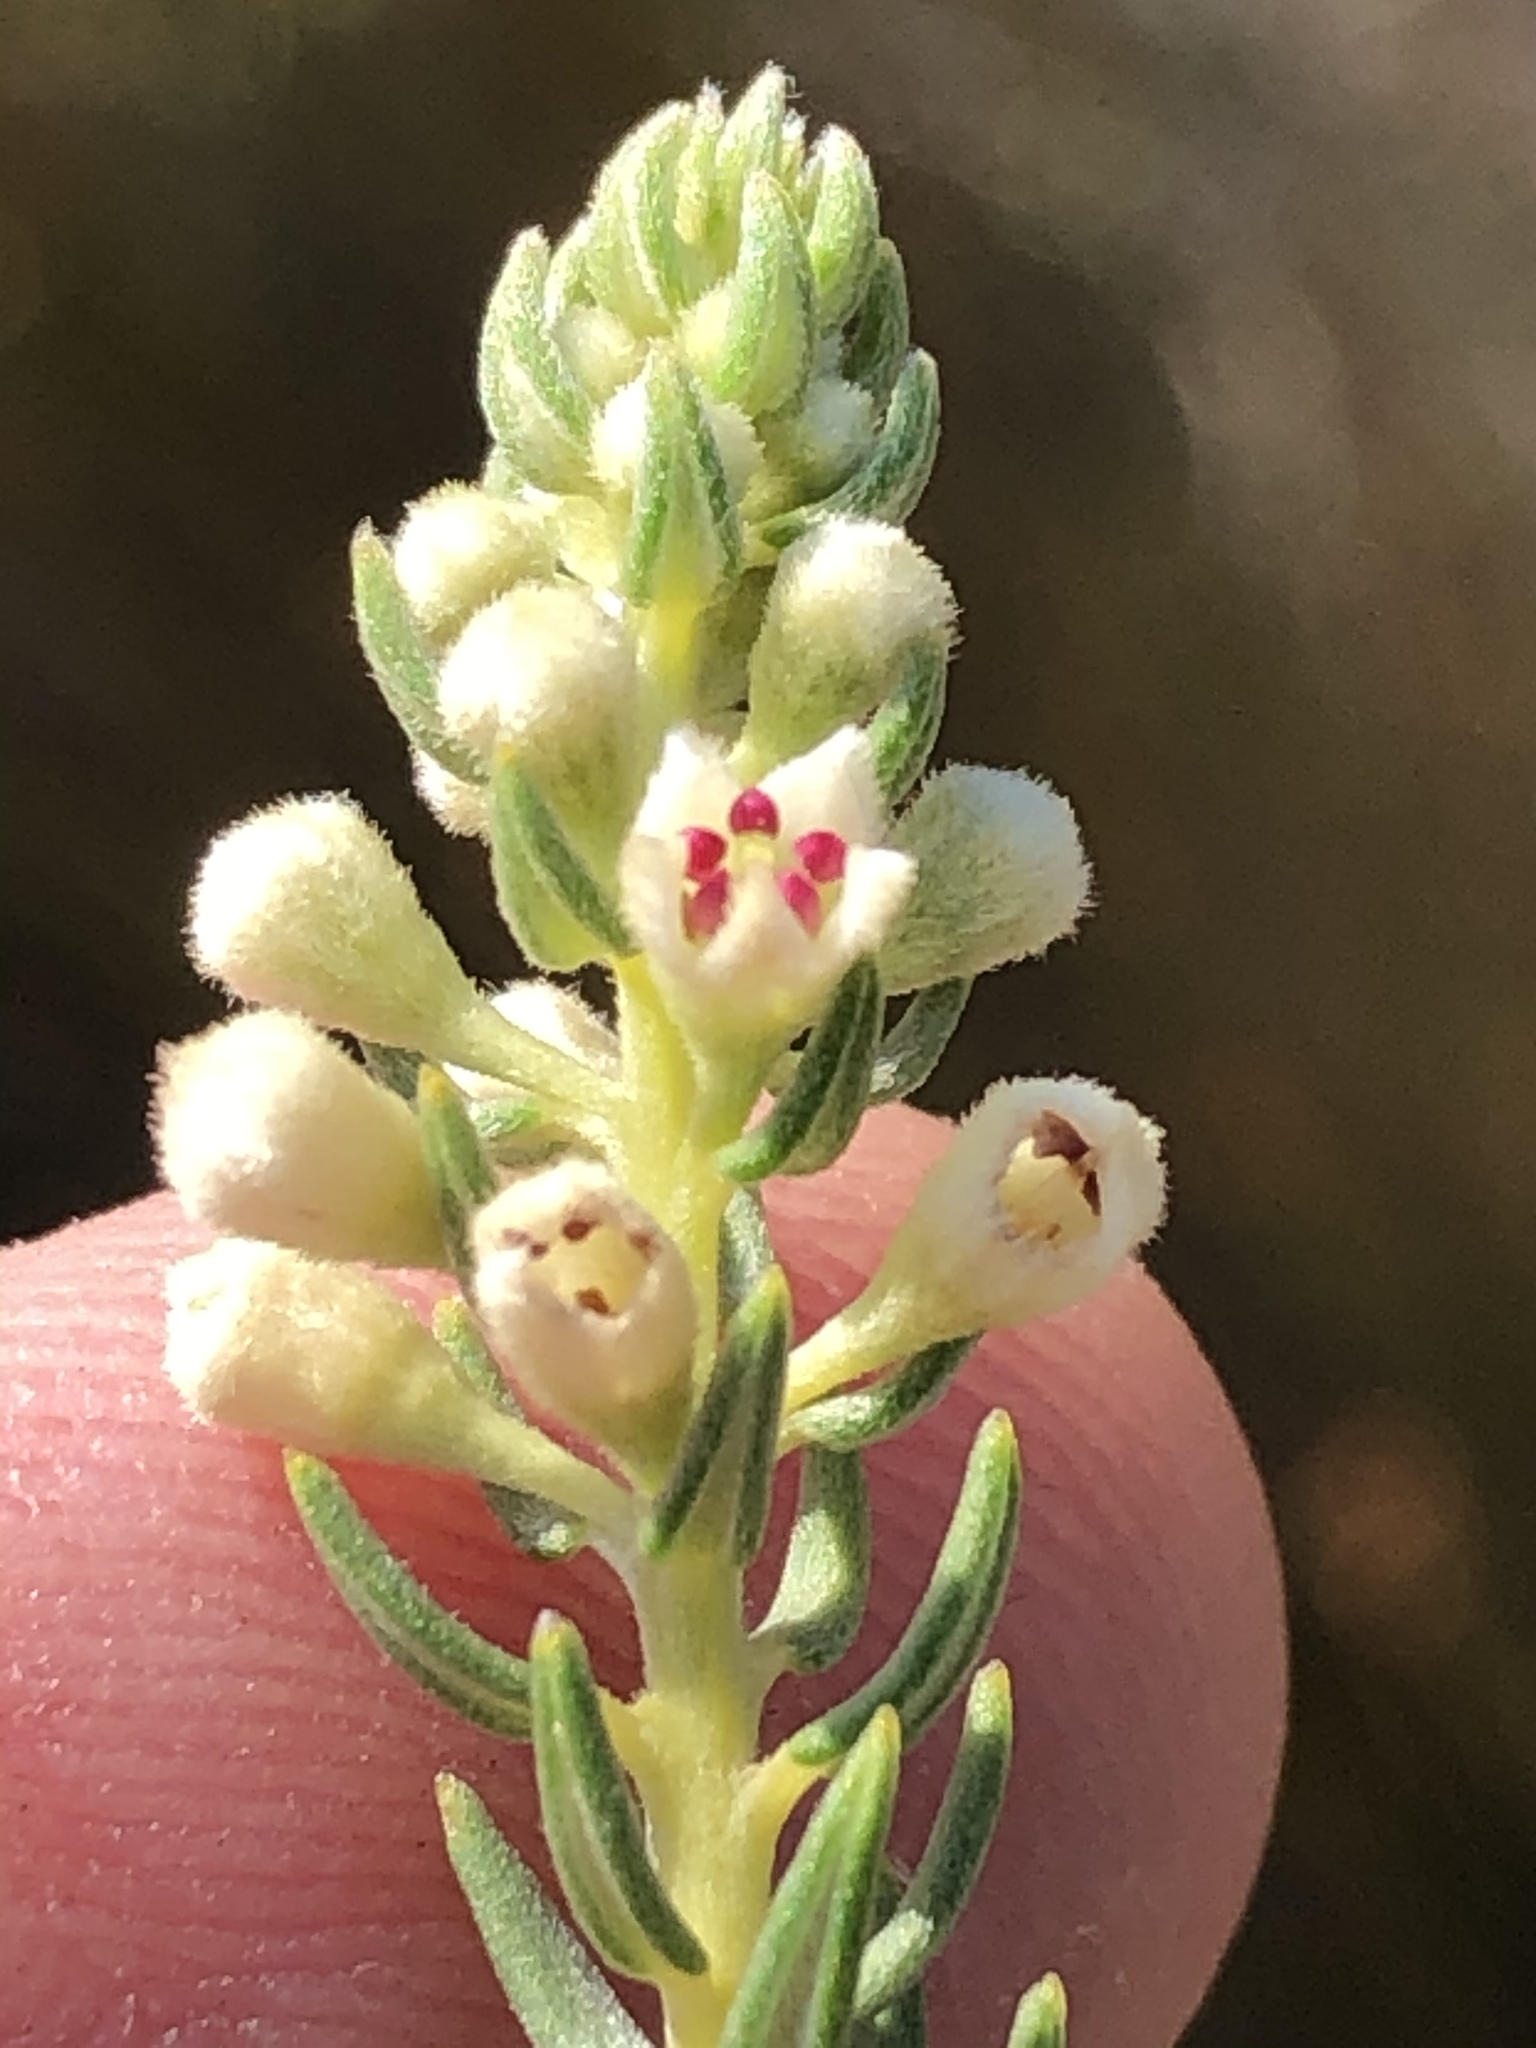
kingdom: Plantae
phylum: Tracheophyta
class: Magnoliopsida
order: Rosales
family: Rhamnaceae
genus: Phylica
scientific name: Phylica pinea
